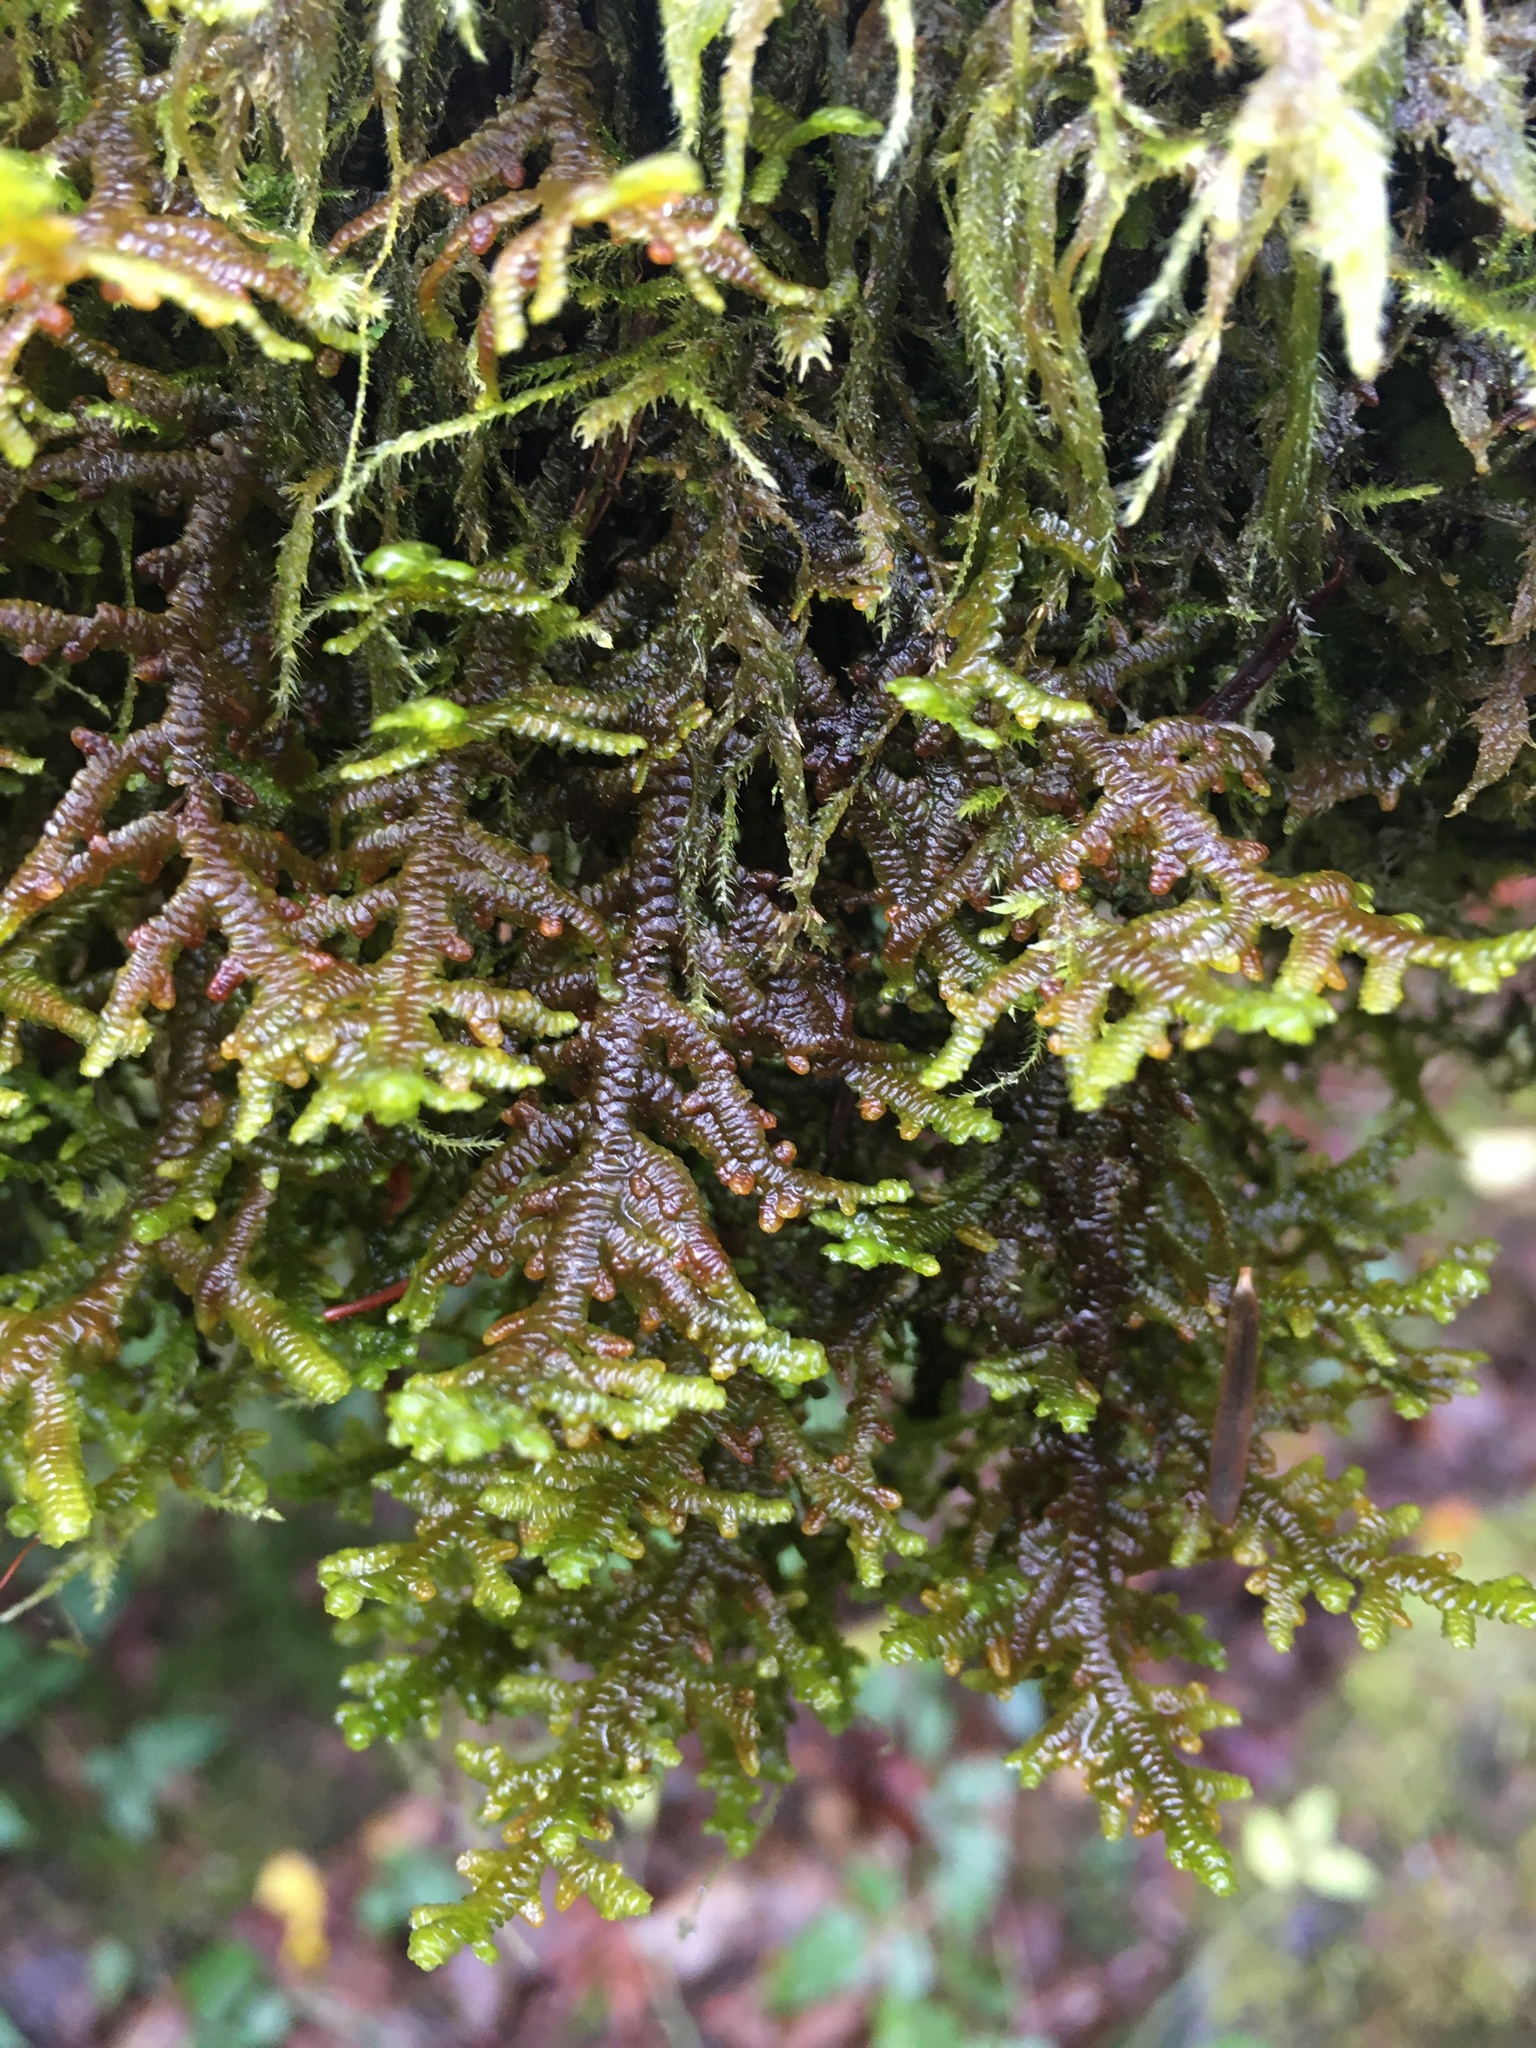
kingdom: Plantae
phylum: Marchantiophyta
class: Jungermanniopsida
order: Porellales
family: Porellaceae
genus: Porella
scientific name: Porella navicularis
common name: Tree ruffle liverwort
